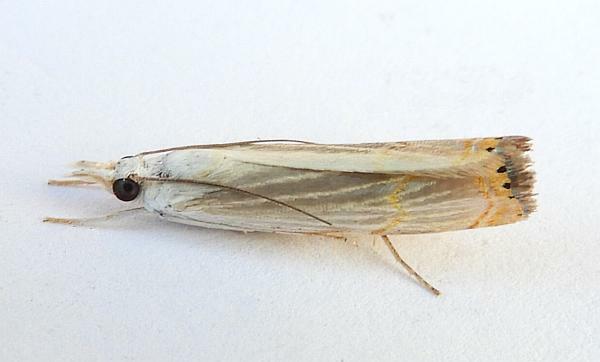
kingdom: Animalia
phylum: Arthropoda
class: Insecta
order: Lepidoptera
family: Crambidae
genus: Parapediasia
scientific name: Parapediasia decorellus
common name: Graceful grass-veneer
